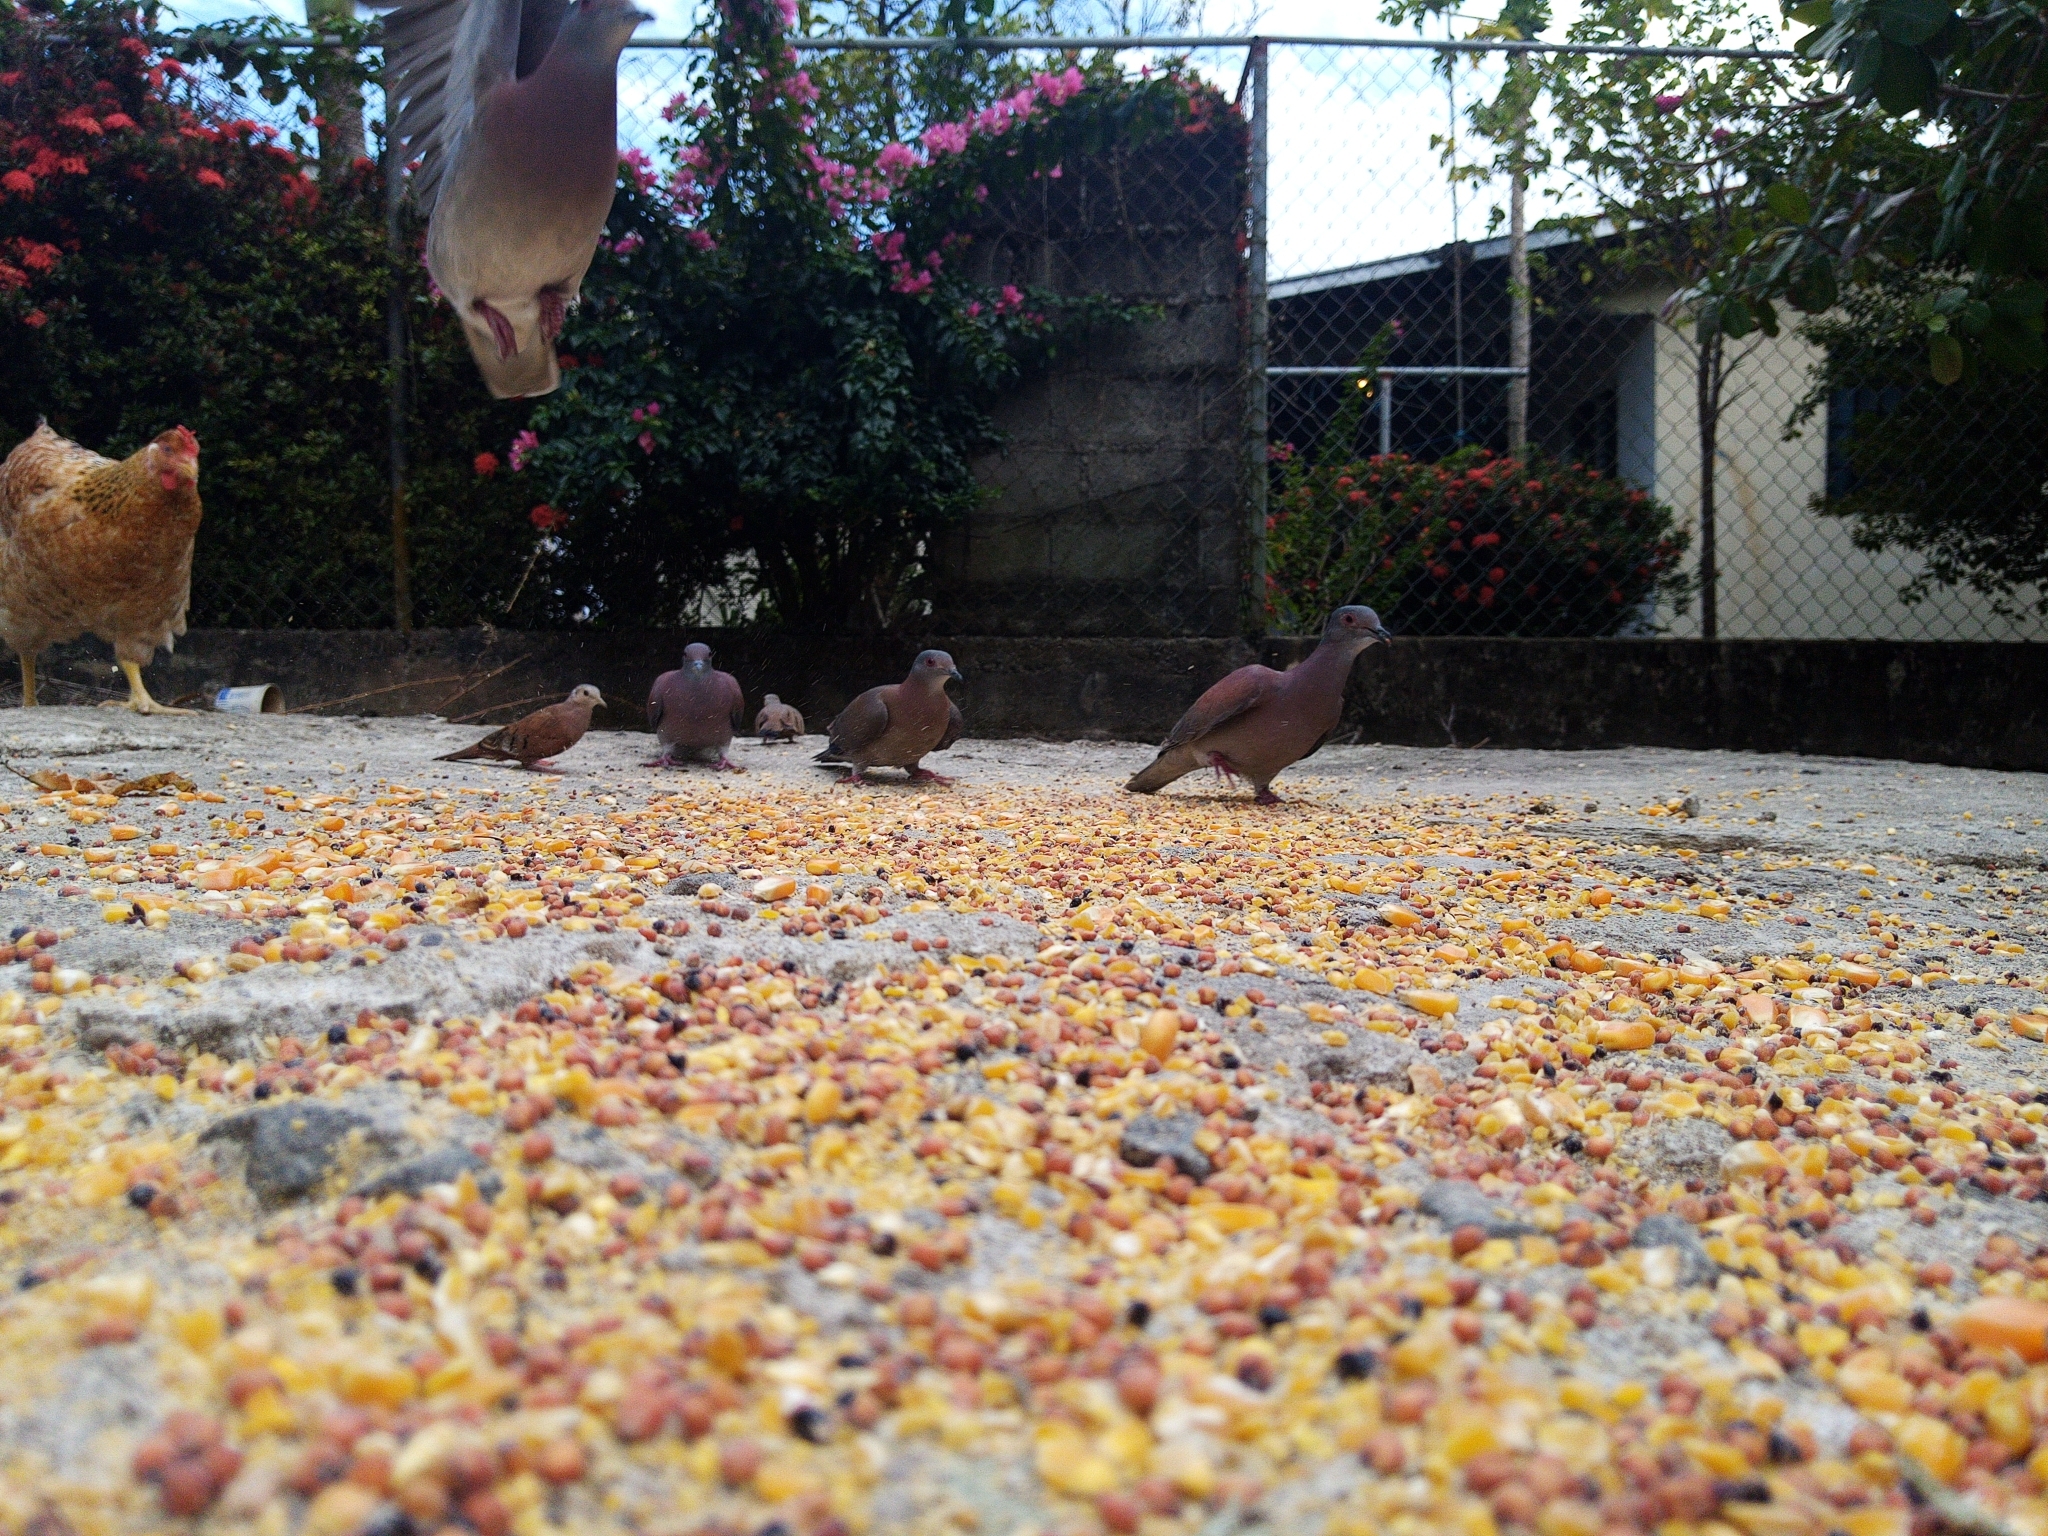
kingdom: Animalia
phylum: Chordata
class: Aves
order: Columbiformes
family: Columbidae
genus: Patagioenas
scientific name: Patagioenas cayennensis
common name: Pale-vented pigeon
